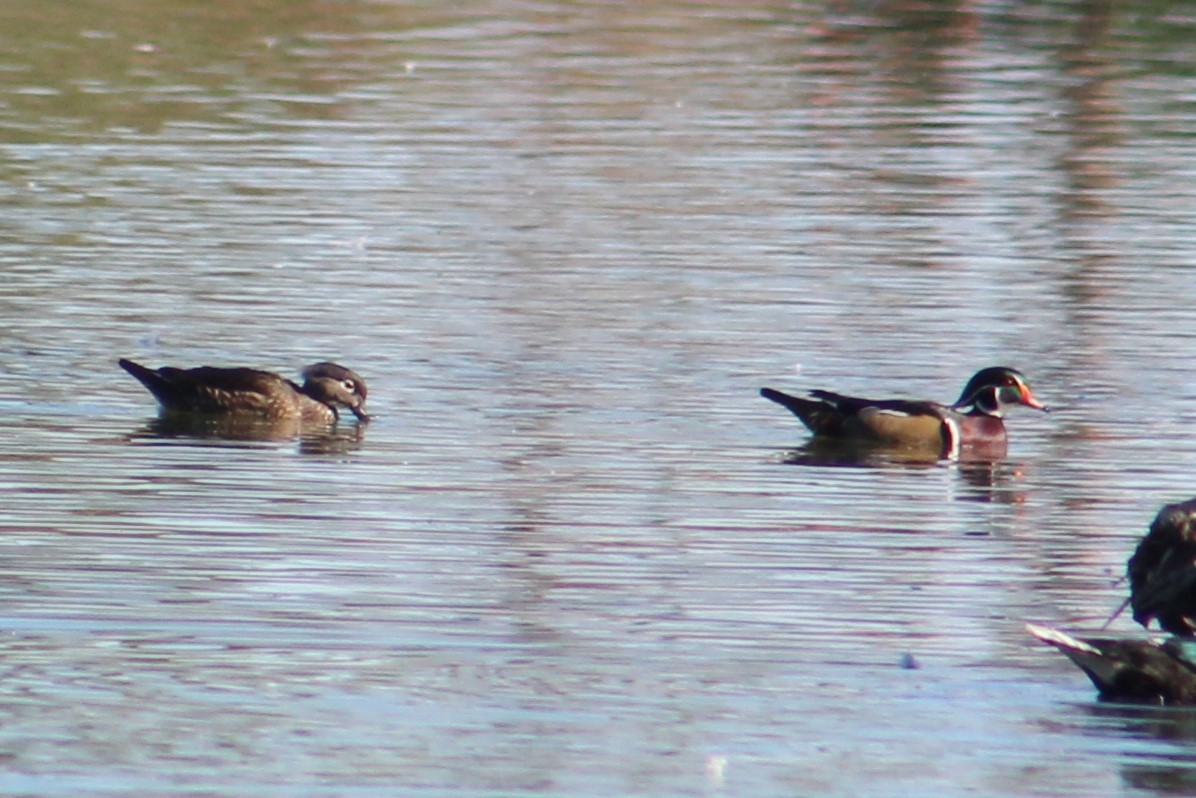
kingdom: Animalia
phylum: Chordata
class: Aves
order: Anseriformes
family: Anatidae
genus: Aix
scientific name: Aix sponsa
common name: Wood duck
